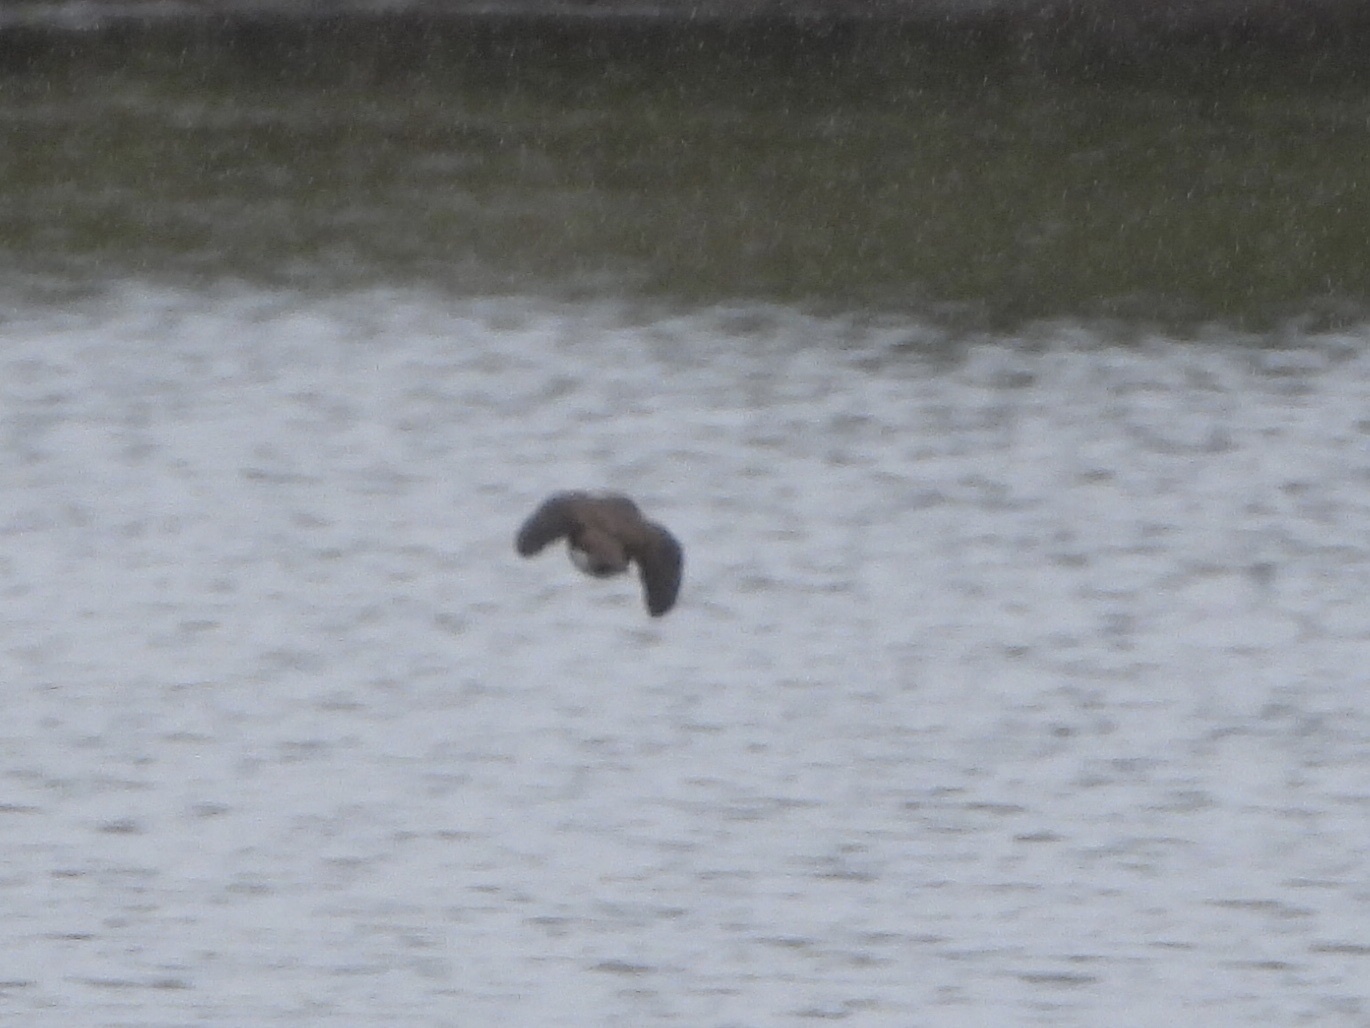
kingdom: Animalia
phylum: Chordata
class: Aves
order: Passeriformes
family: Hirundinidae
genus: Stelgidopteryx
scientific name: Stelgidopteryx serripennis
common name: Northern rough-winged swallow
